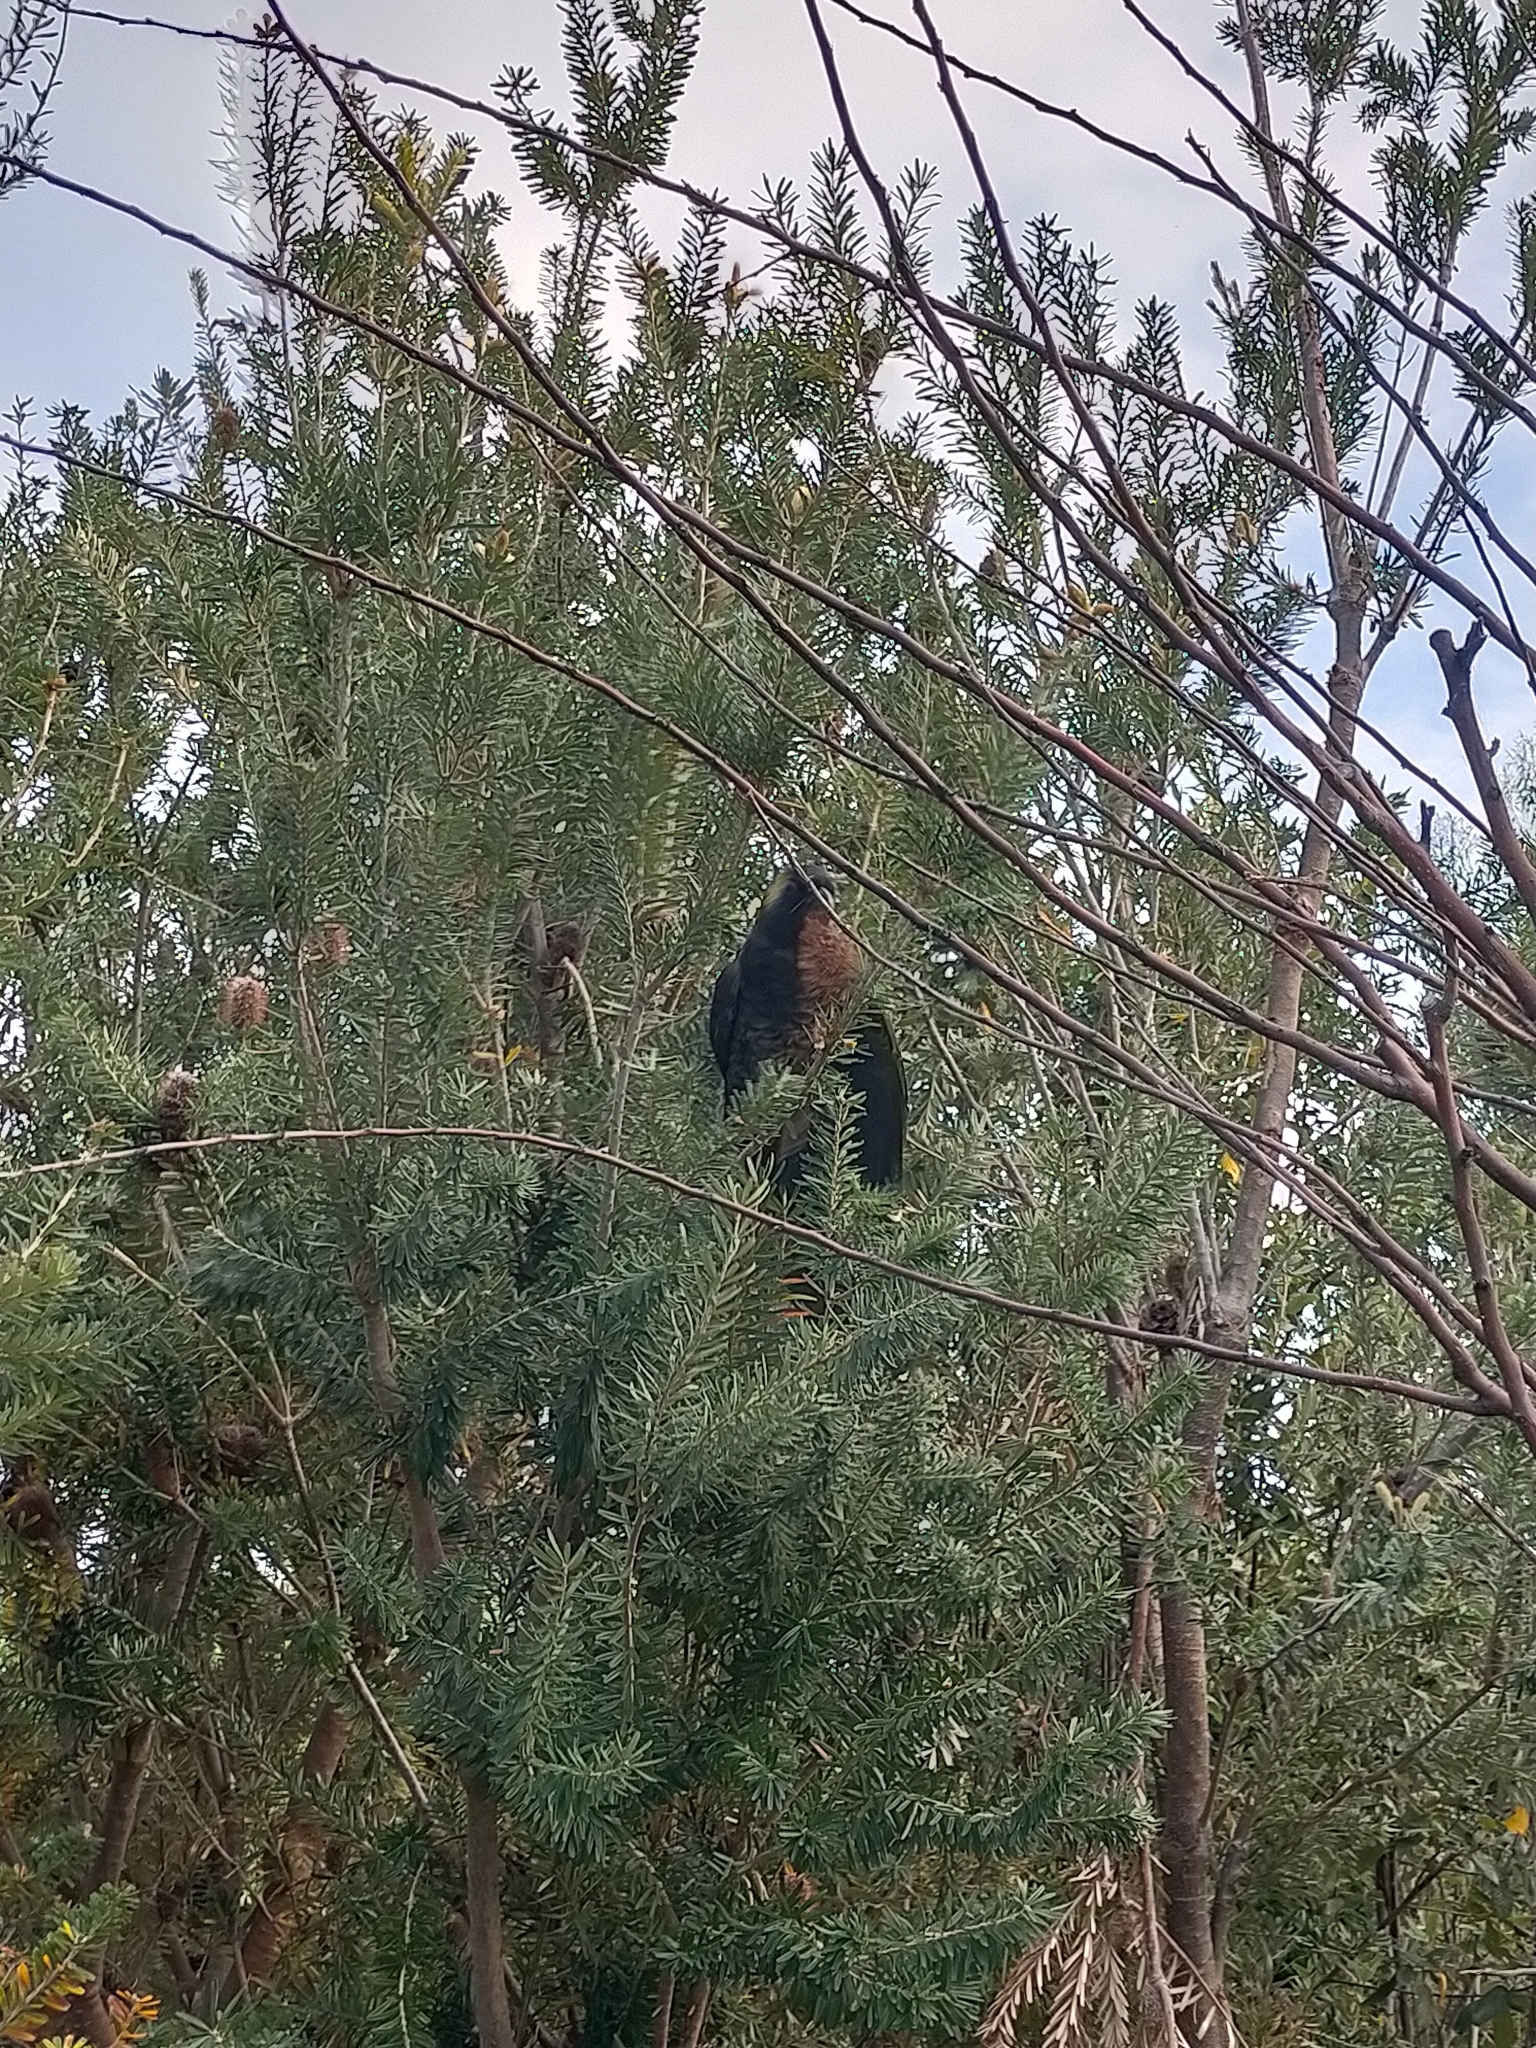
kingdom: Animalia
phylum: Chordata
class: Aves
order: Psittaciformes
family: Cacatuidae
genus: Zanda
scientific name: Zanda funerea
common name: Yellow-tailed black-cockatoo
